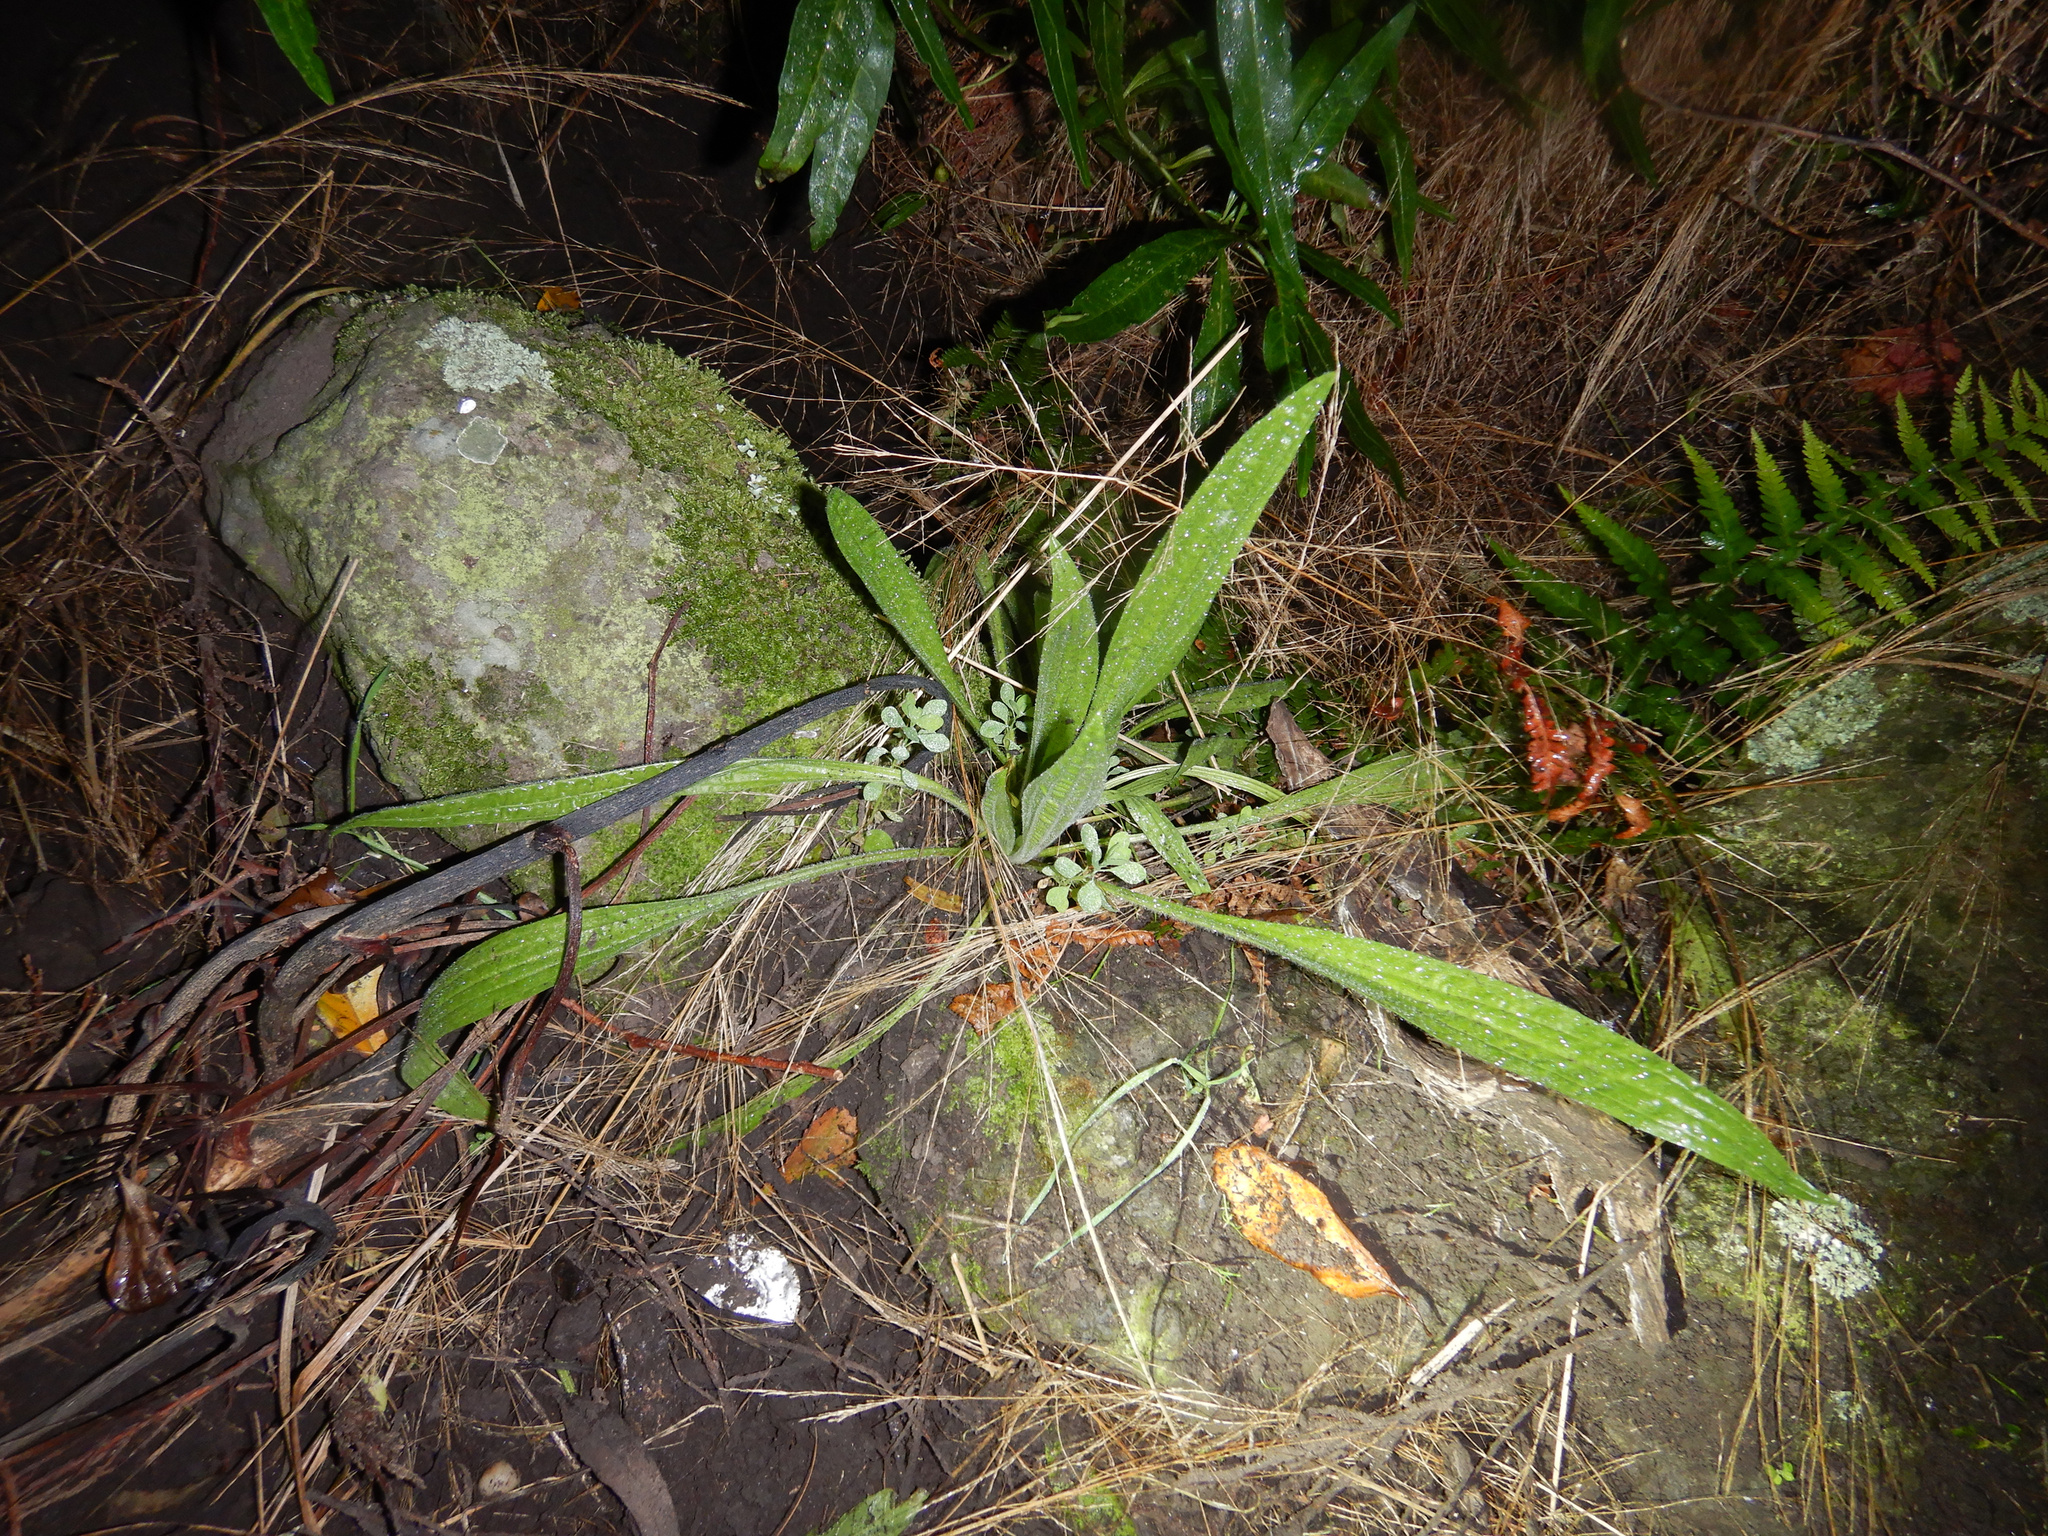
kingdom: Plantae
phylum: Tracheophyta
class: Magnoliopsida
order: Lamiales
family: Plantaginaceae
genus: Plantago
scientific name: Plantago lanceolata
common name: Ribwort plantain
